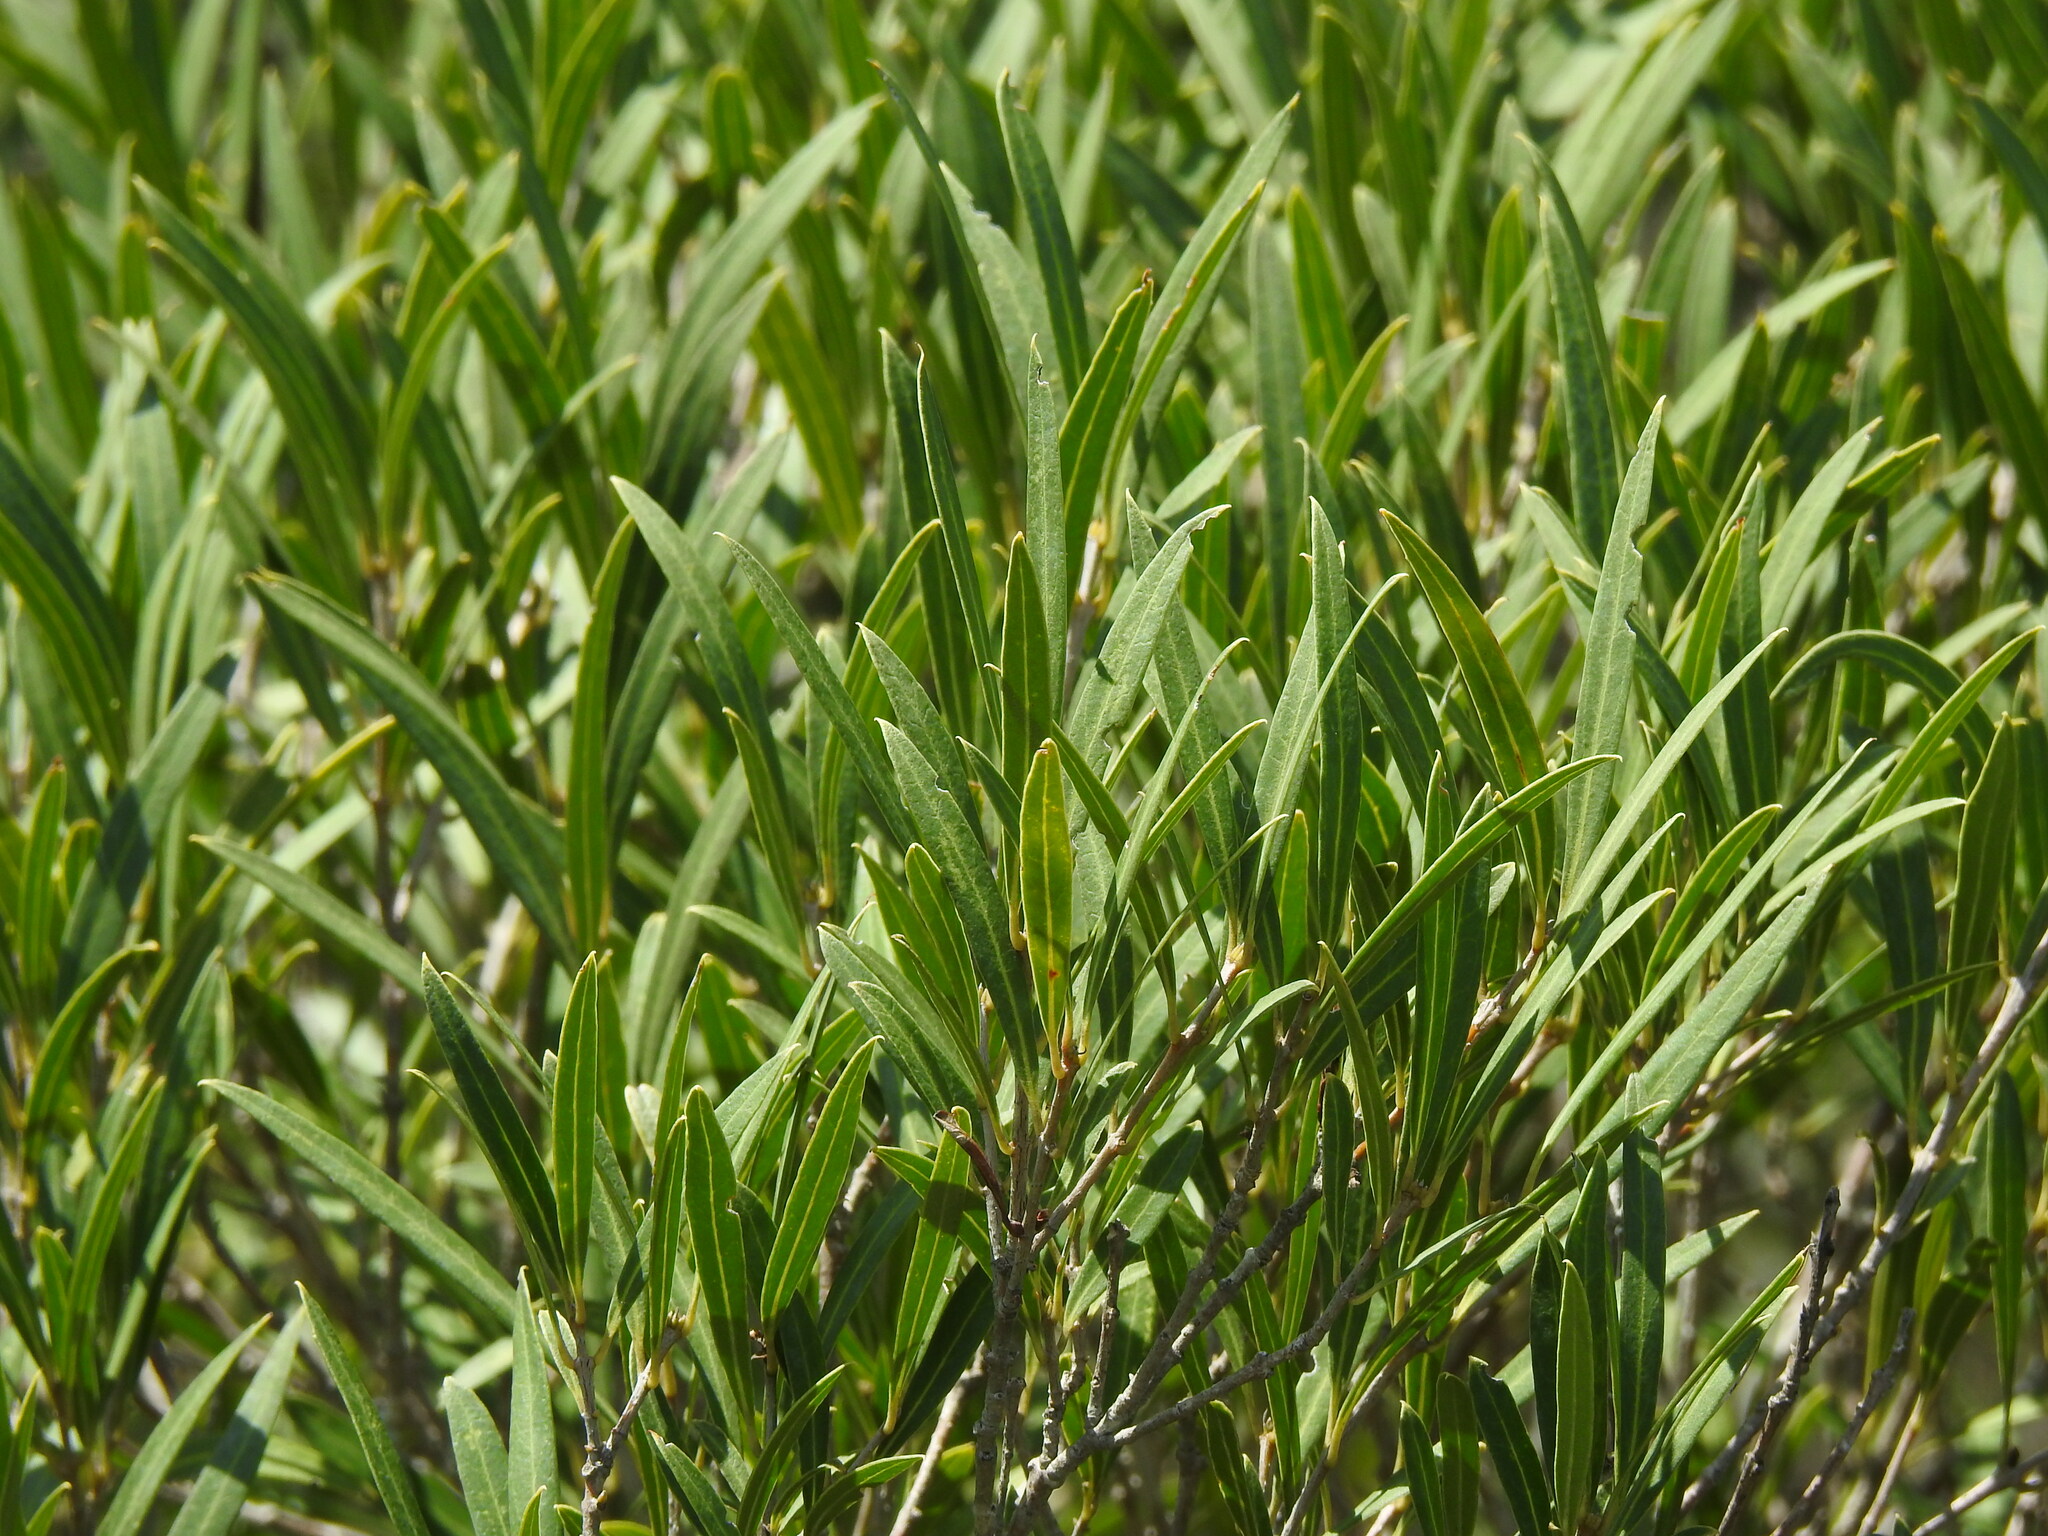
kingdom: Plantae
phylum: Tracheophyta
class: Magnoliopsida
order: Lamiales
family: Oleaceae
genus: Phillyrea
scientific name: Phillyrea angustifolia
